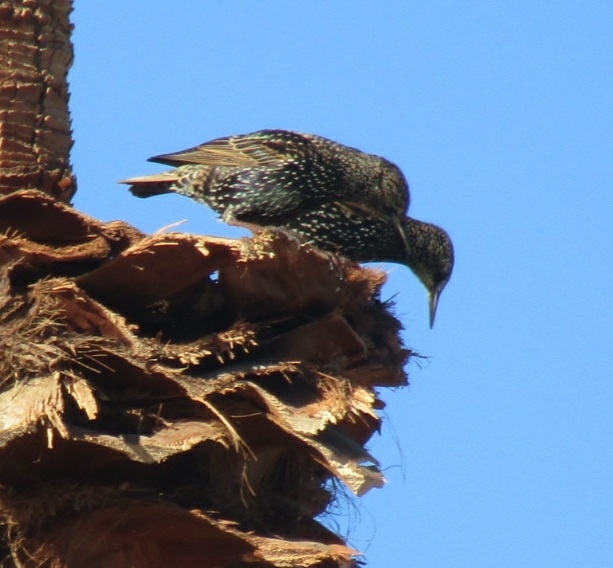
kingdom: Animalia
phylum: Chordata
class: Aves
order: Passeriformes
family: Sturnidae
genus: Sturnus
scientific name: Sturnus vulgaris
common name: Common starling
